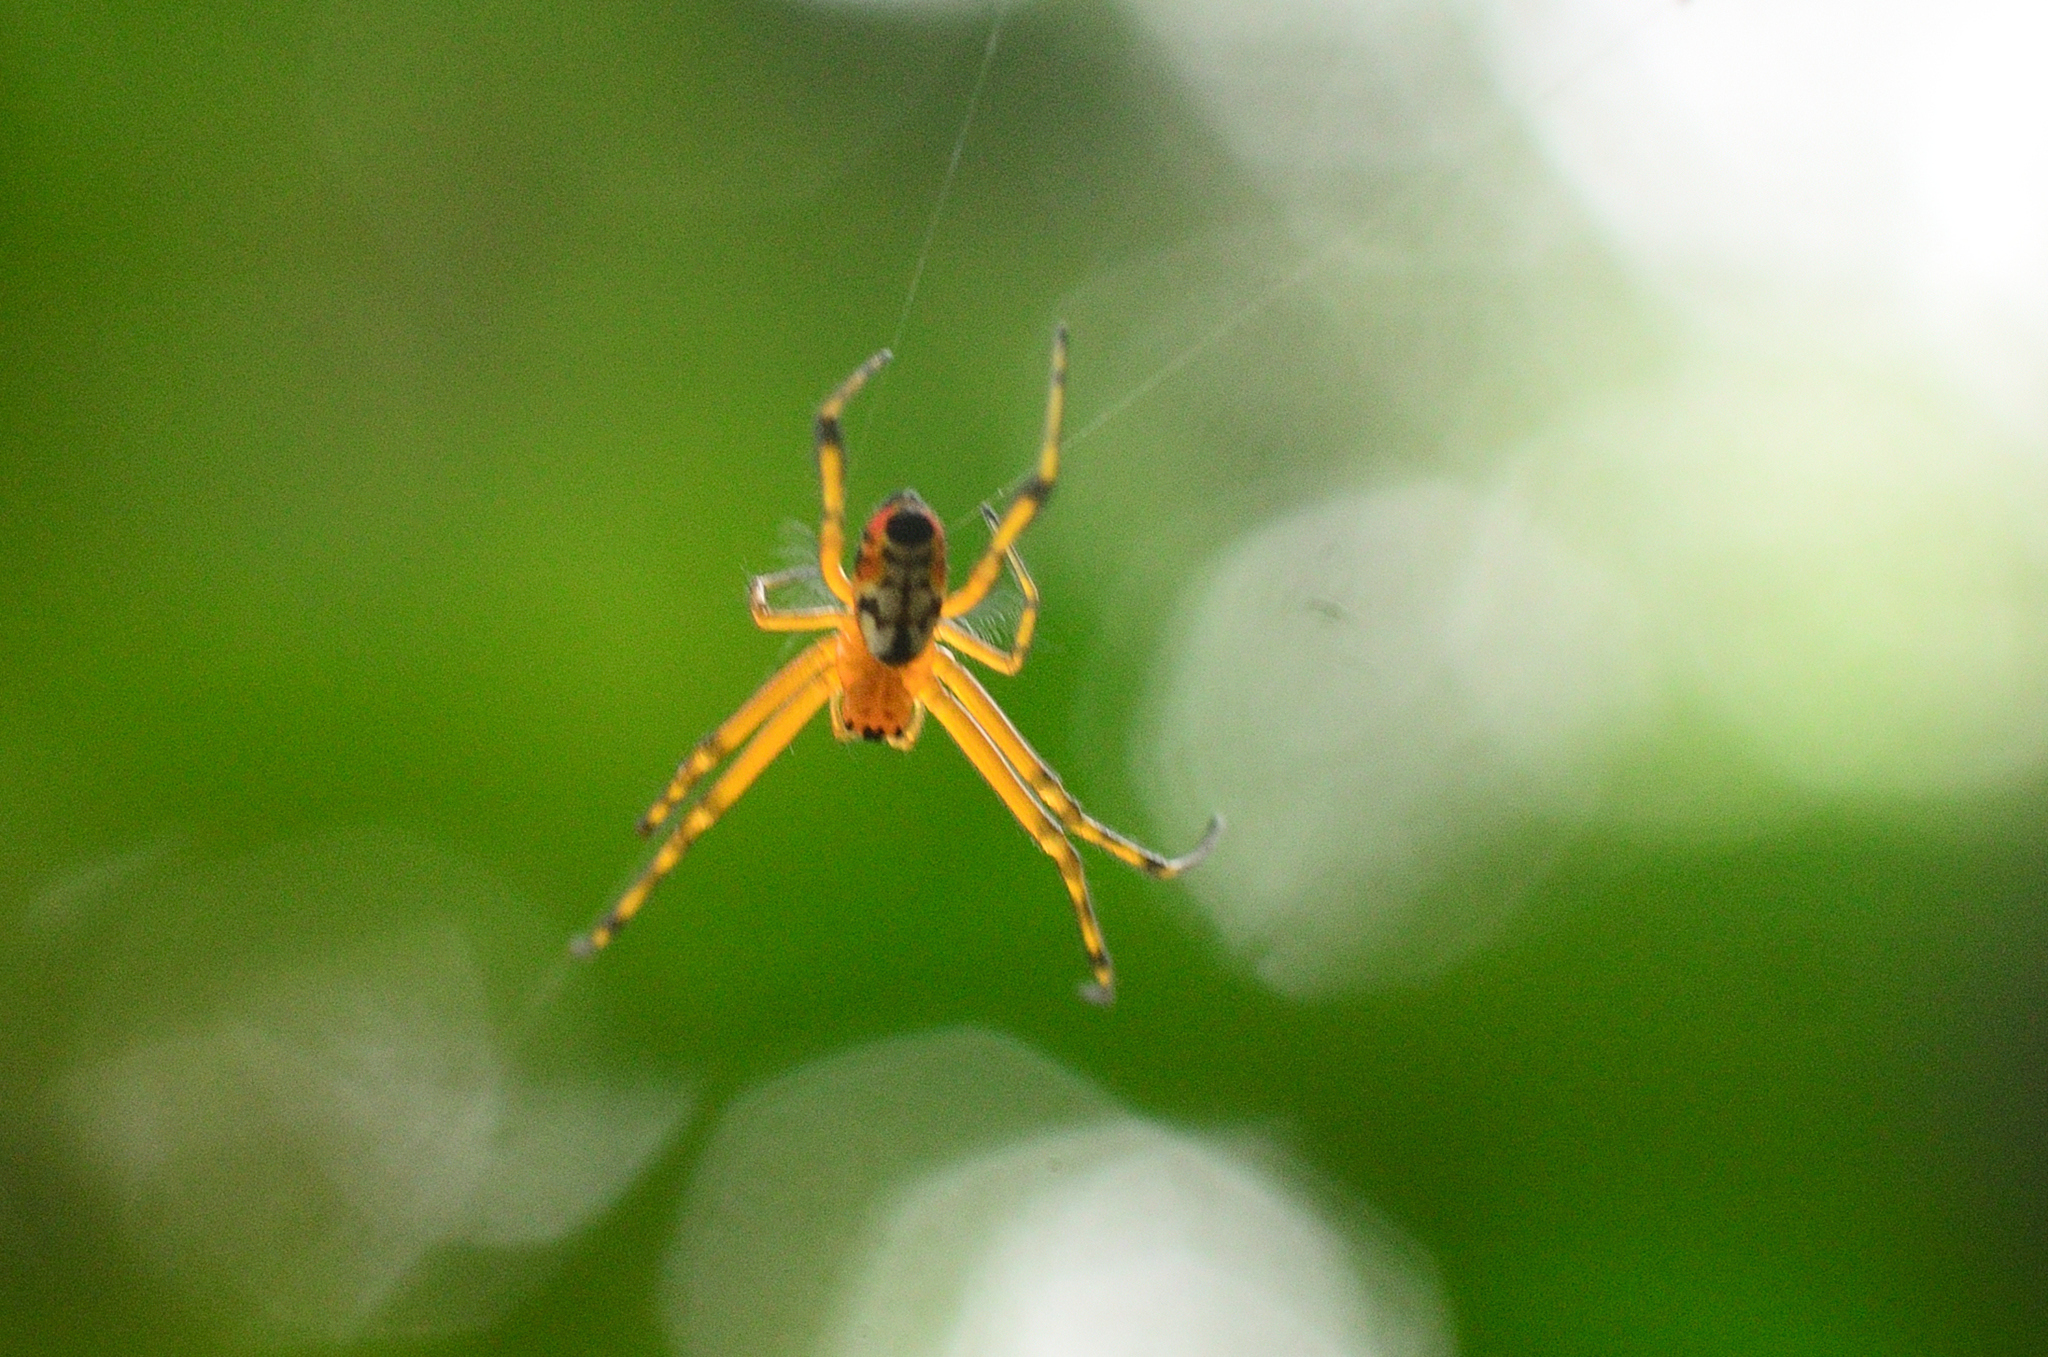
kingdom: Animalia
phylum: Arthropoda
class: Arachnida
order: Araneae
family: Tetragnathidae
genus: Leucauge
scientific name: Leucauge fastigata
